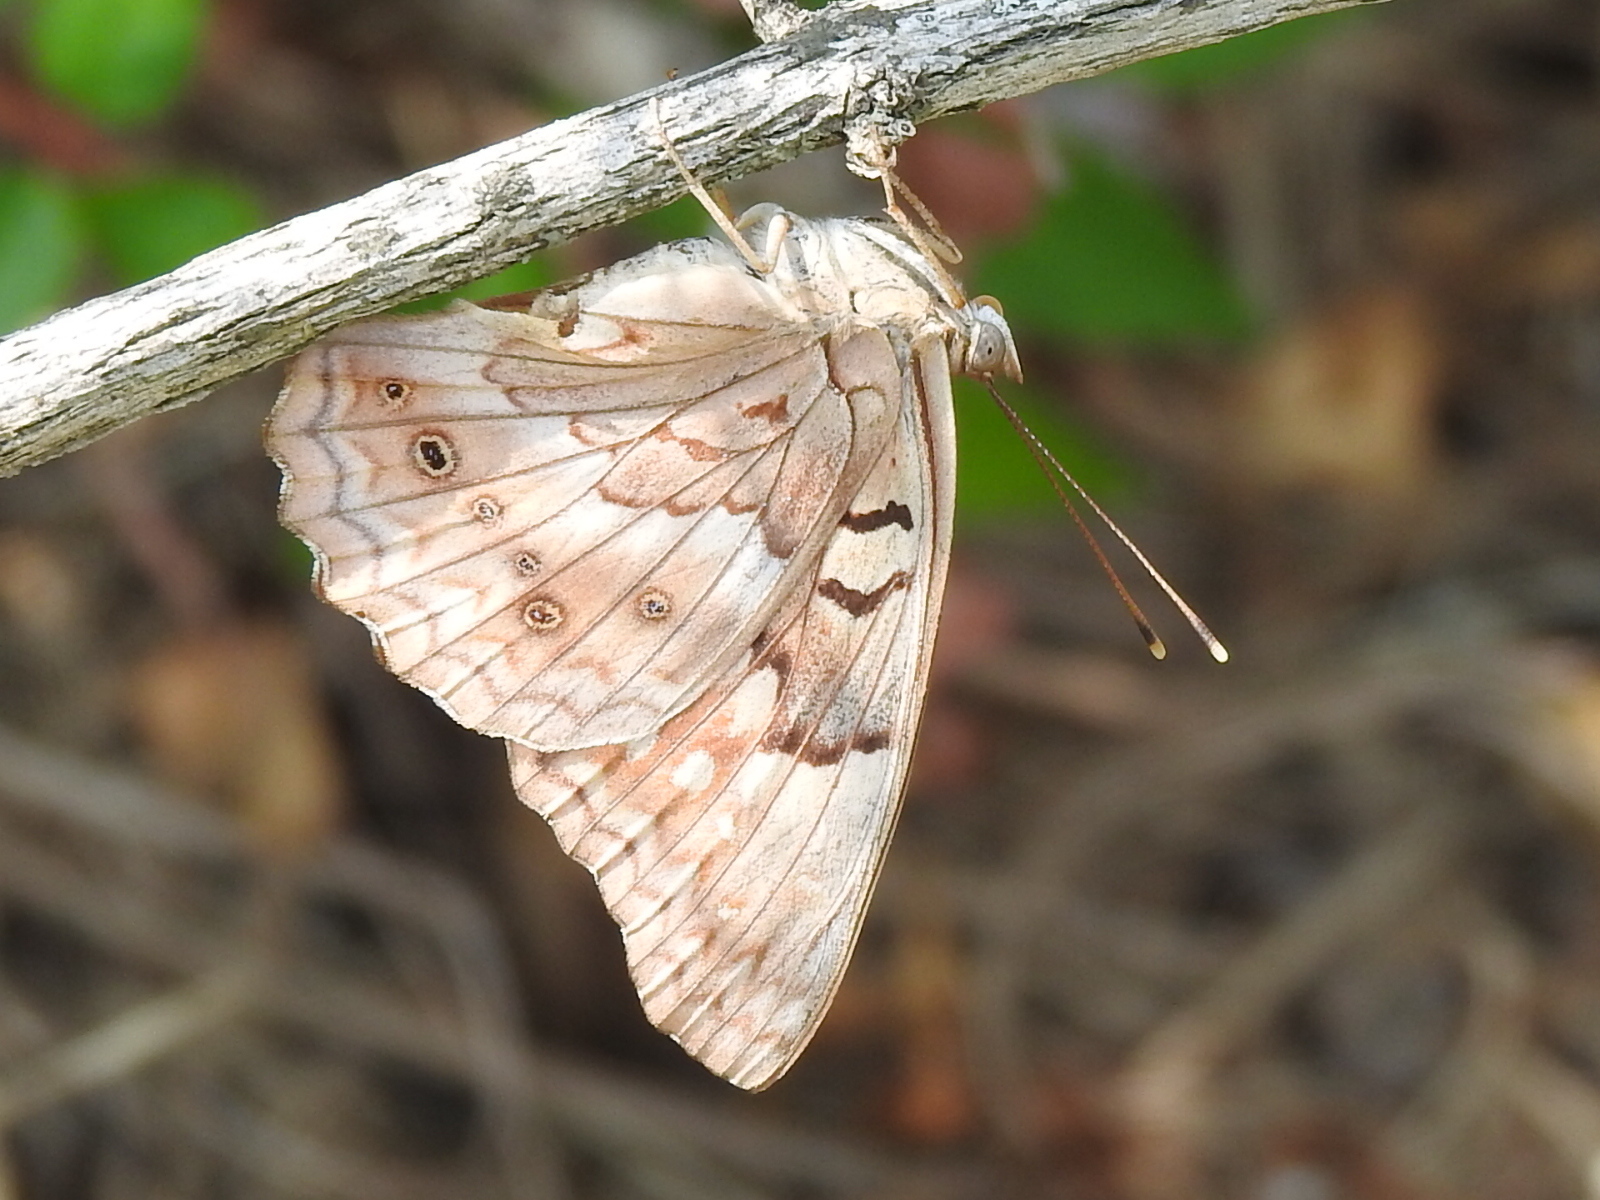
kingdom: Animalia
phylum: Arthropoda
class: Insecta
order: Lepidoptera
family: Nymphalidae
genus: Asterocampa
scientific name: Asterocampa clyton
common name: Tawny emperor
